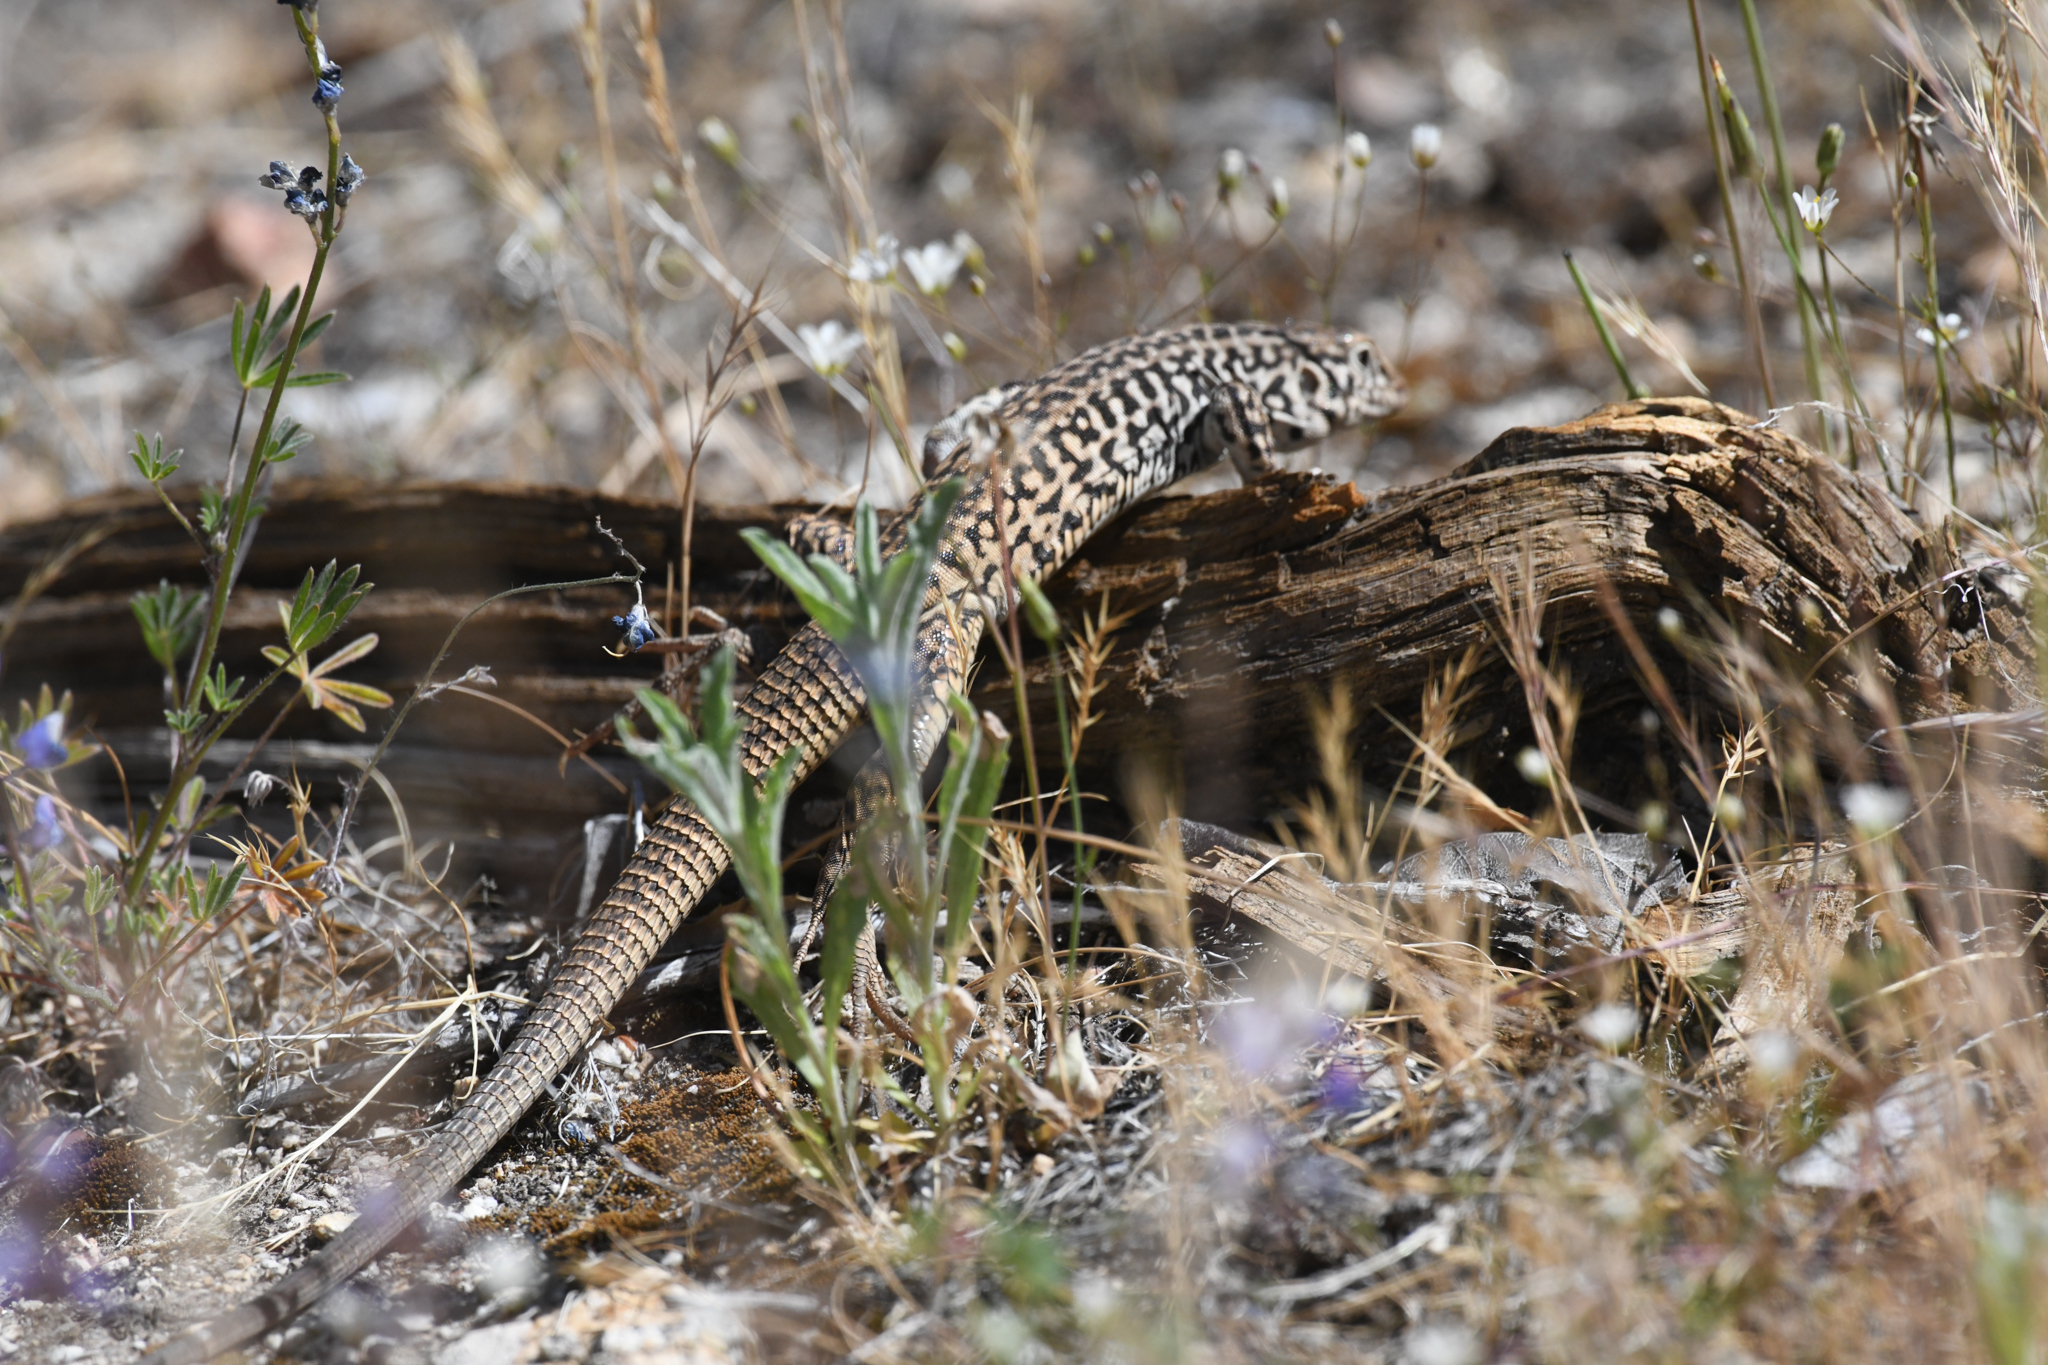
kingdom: Animalia
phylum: Chordata
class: Squamata
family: Teiidae
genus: Aspidoscelis
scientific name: Aspidoscelis tigris
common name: Tiger whiptail
